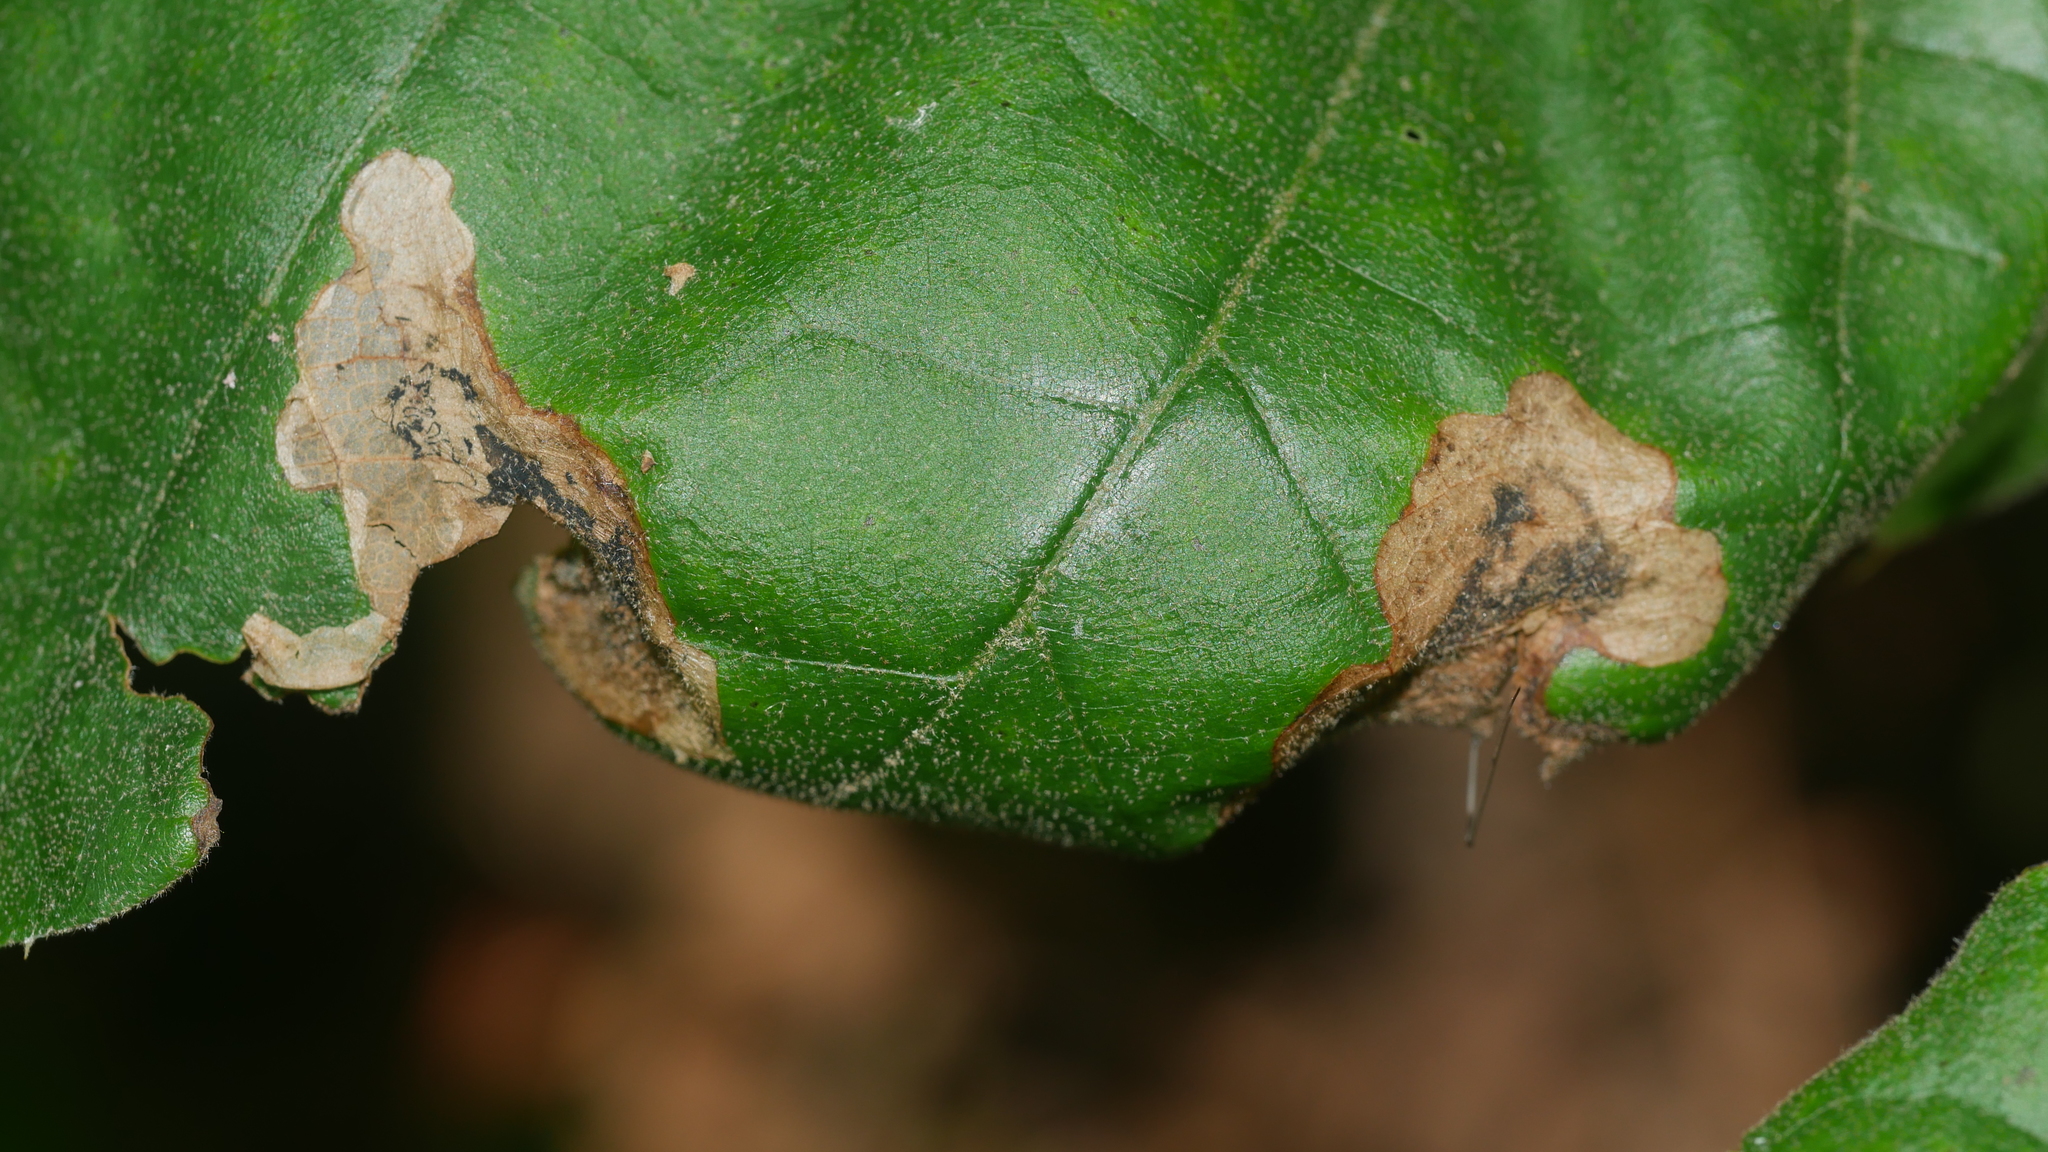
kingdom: Animalia
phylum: Arthropoda
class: Insecta
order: Diptera
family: Agromyzidae
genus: Japanagromyza
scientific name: Japanagromyza viridula
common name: Oak shothole leafminer
